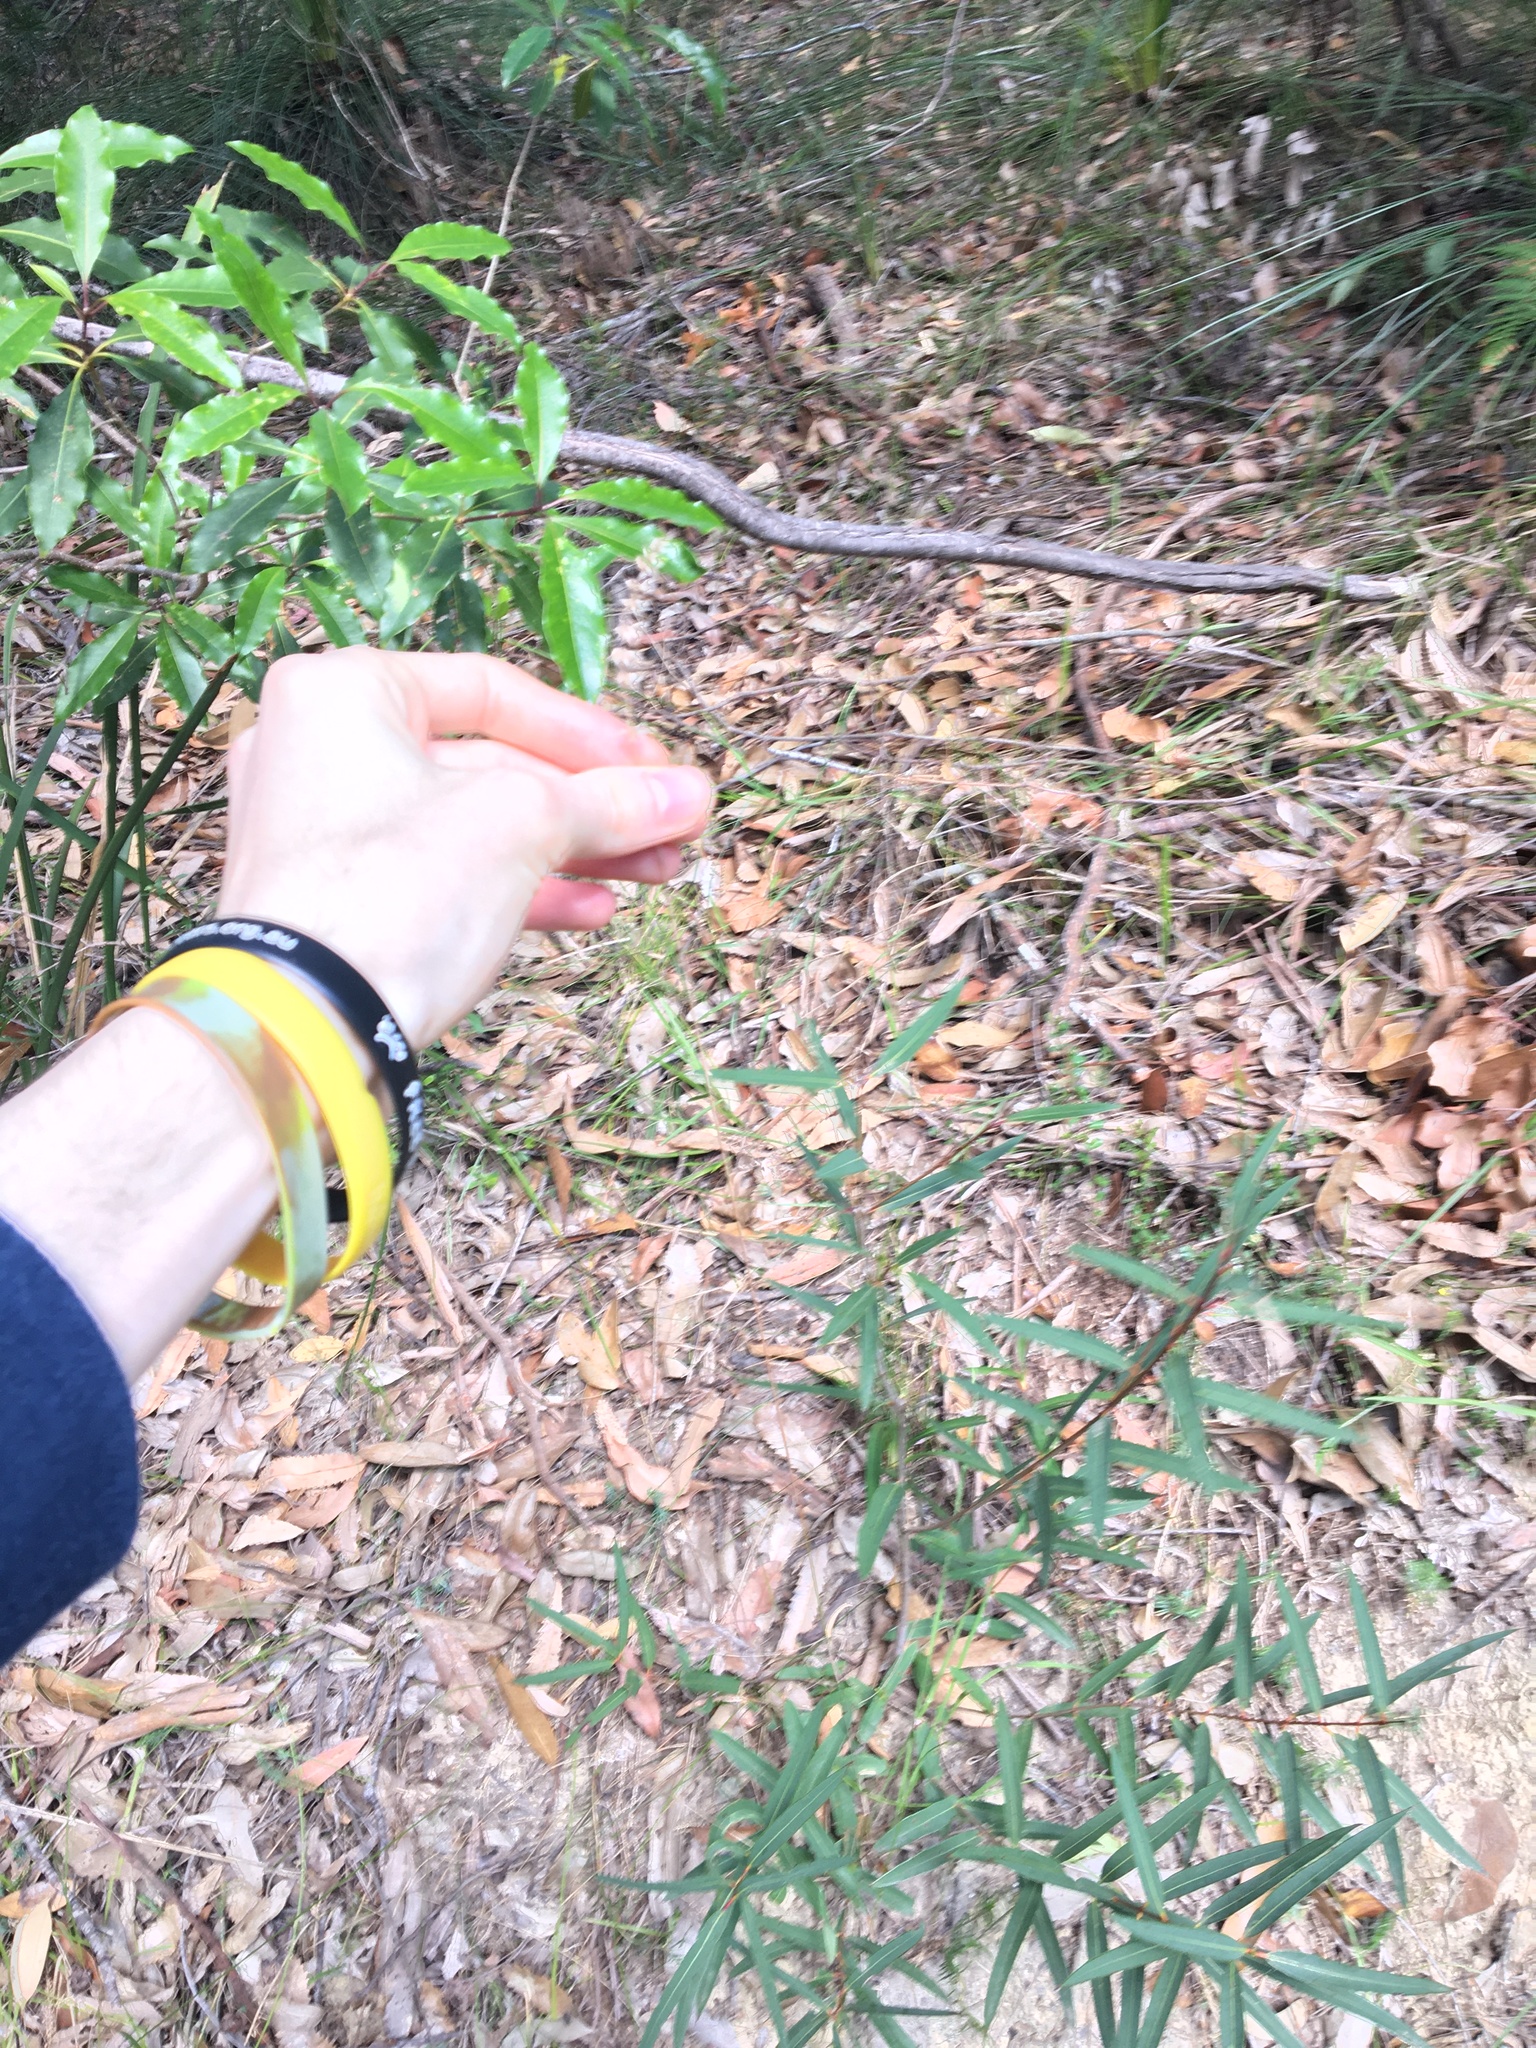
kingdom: Plantae
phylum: Tracheophyta
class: Liliopsida
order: Poales
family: Poaceae
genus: Echinopogon
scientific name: Echinopogon caespitosus
